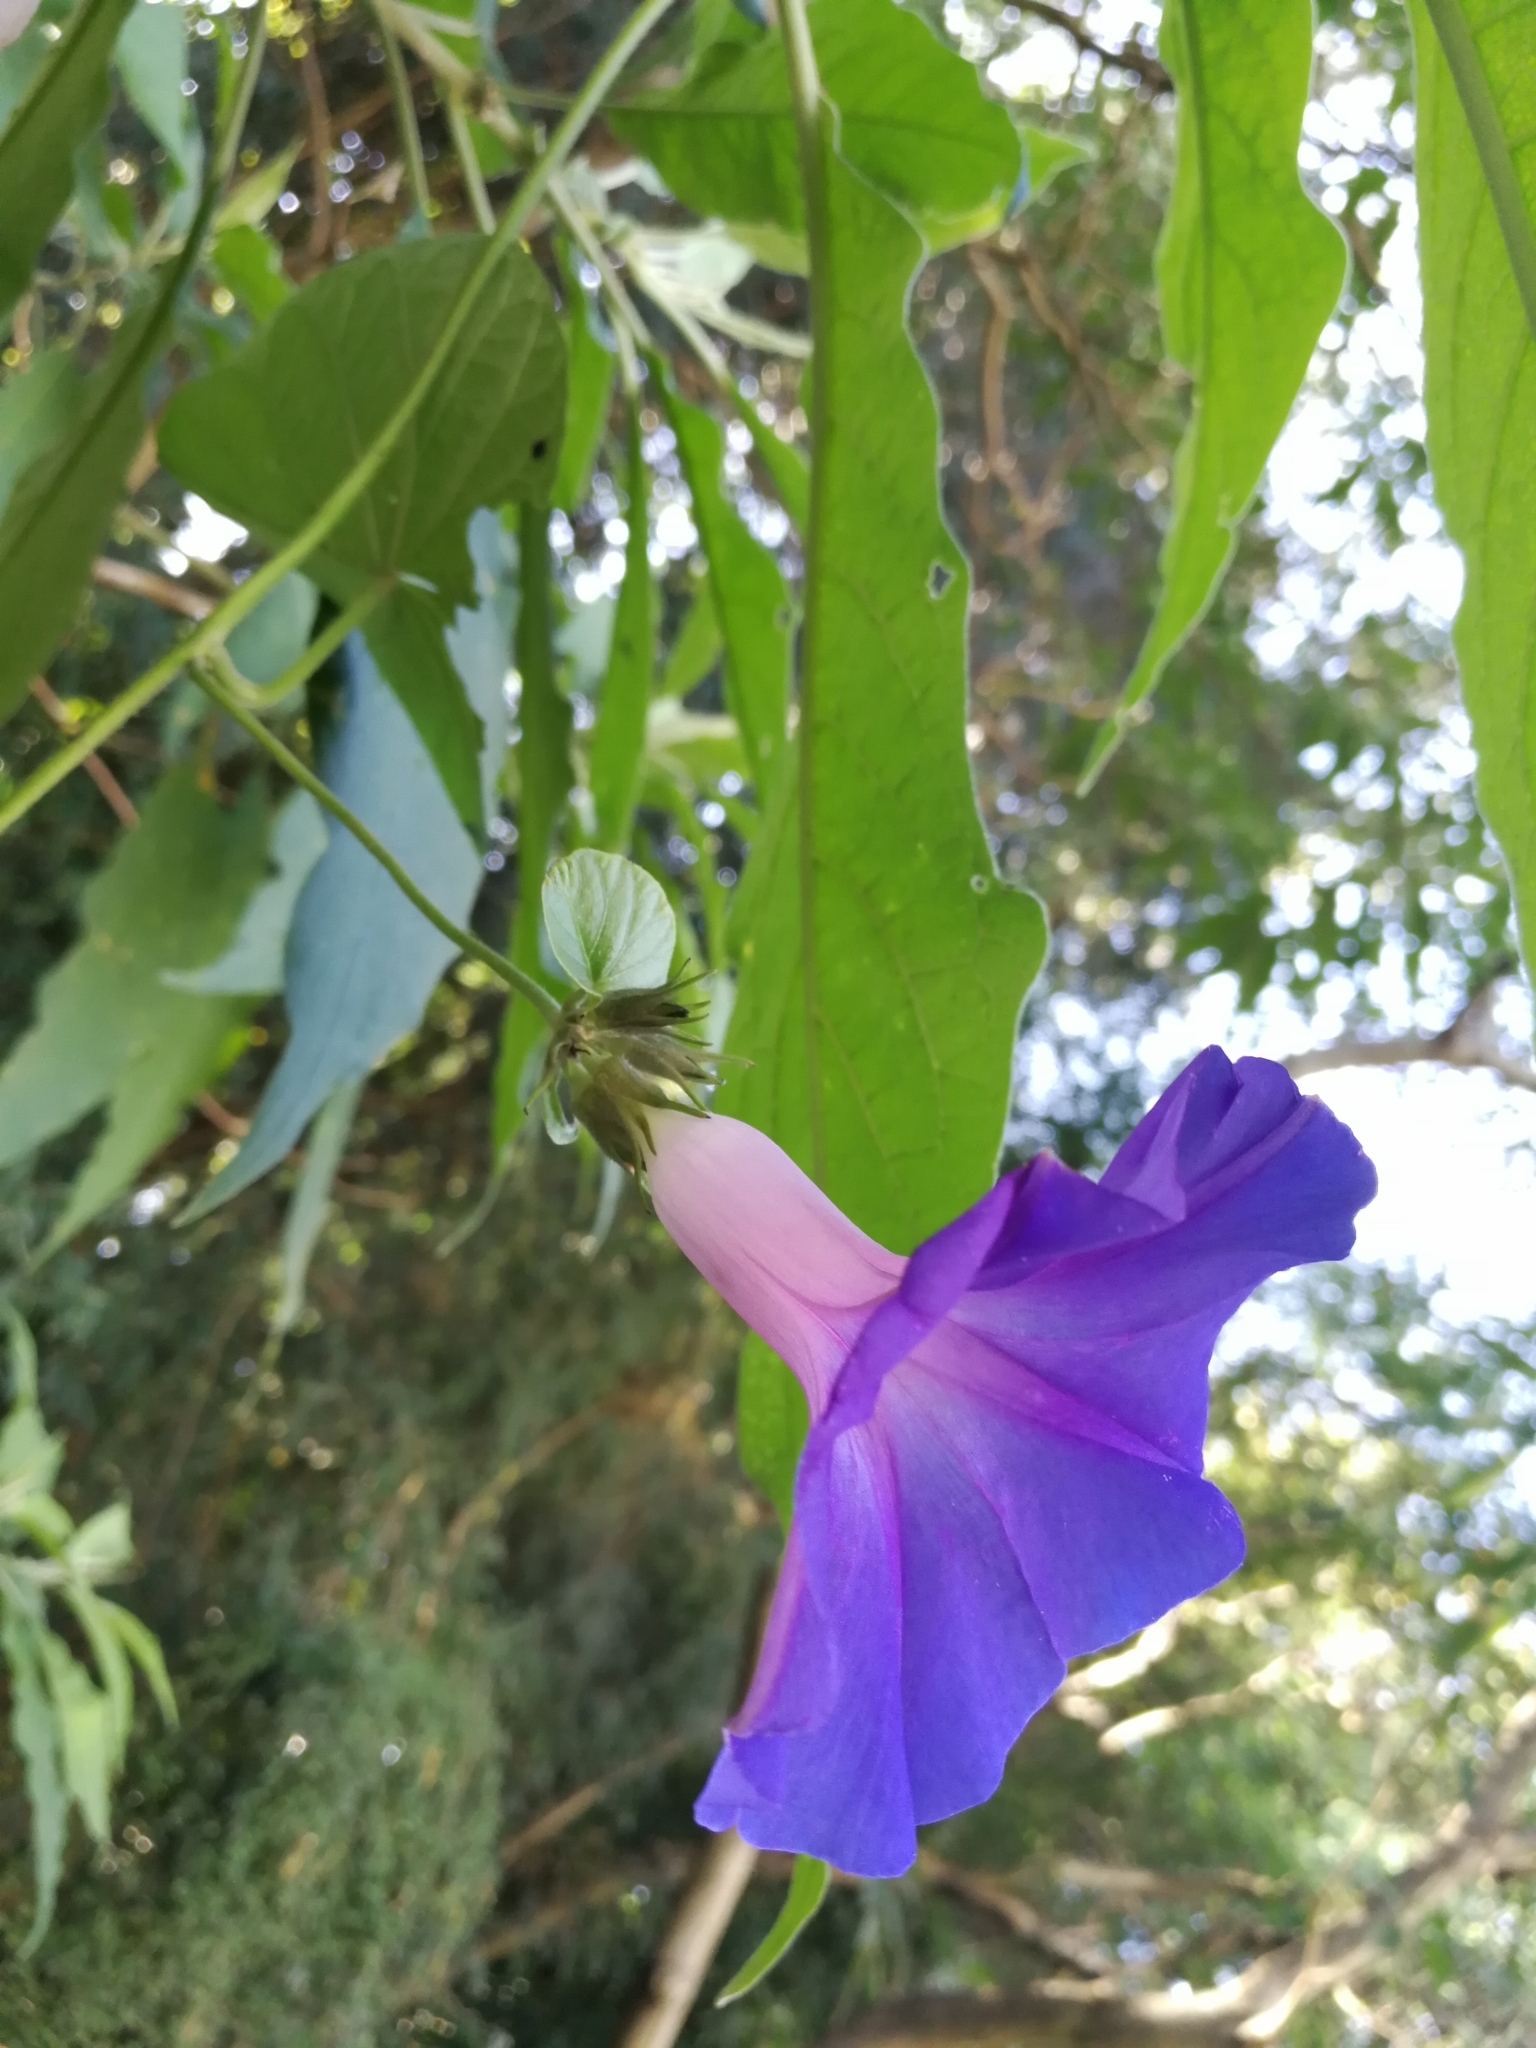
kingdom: Plantae
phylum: Tracheophyta
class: Magnoliopsida
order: Solanales
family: Convolvulaceae
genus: Ipomoea
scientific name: Ipomoea indica
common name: Blue dawnflower
